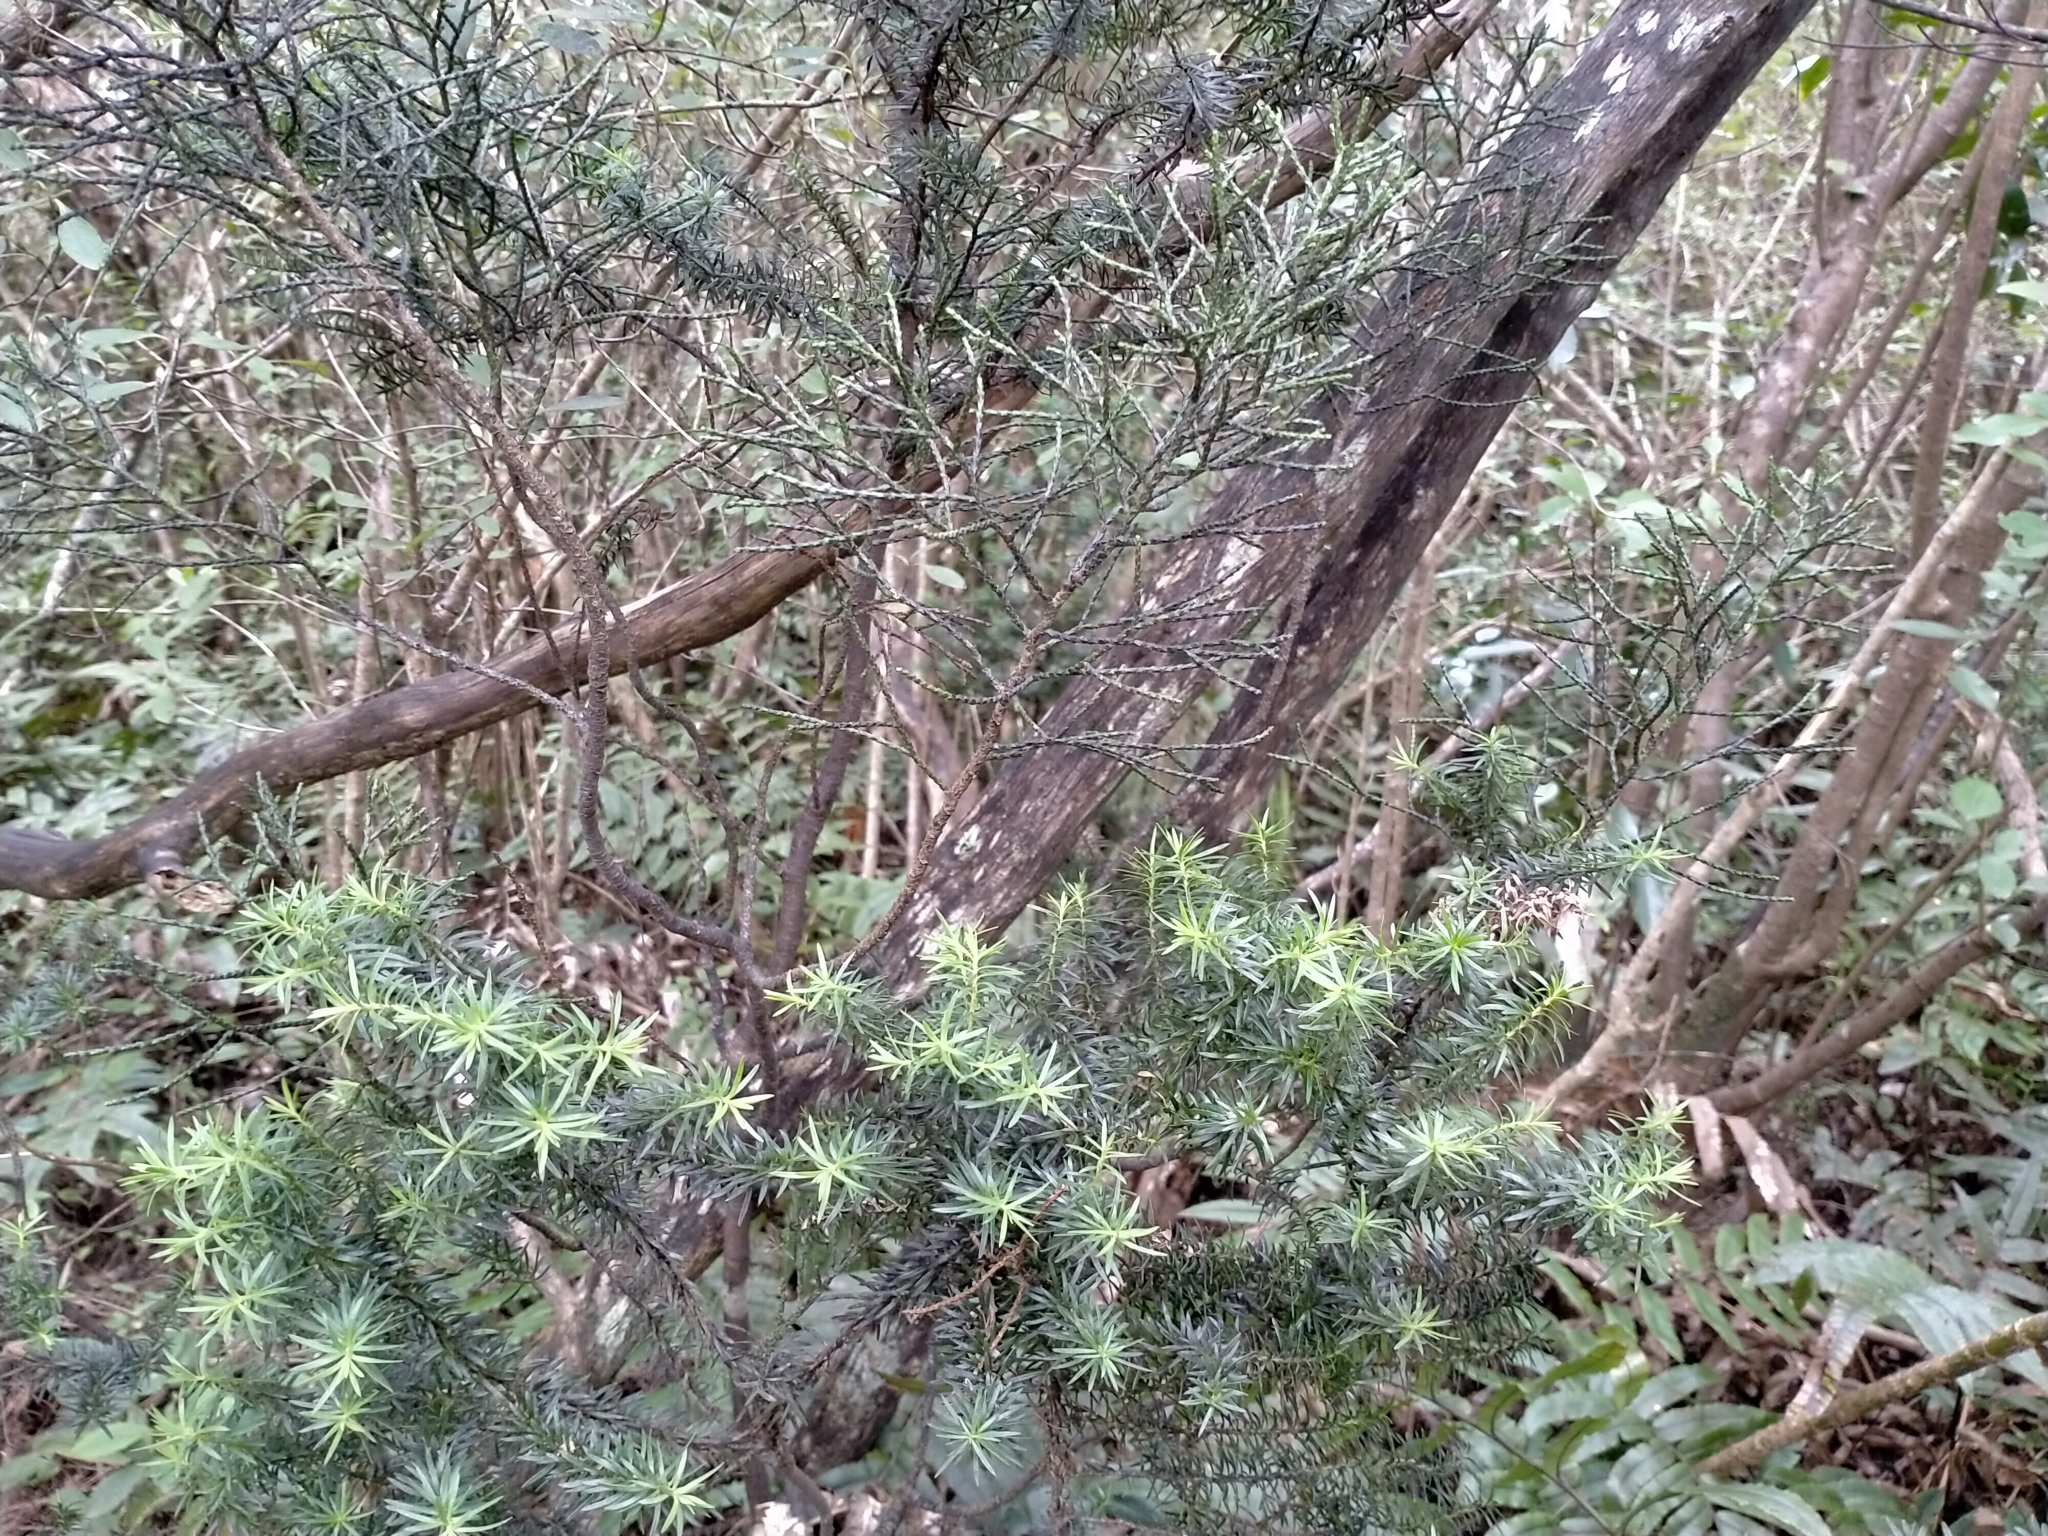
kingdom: Plantae
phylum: Tracheophyta
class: Pinopsida
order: Pinales
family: Podocarpaceae
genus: Halocarpus
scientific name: Halocarpus biformis
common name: Alpine tarwood
